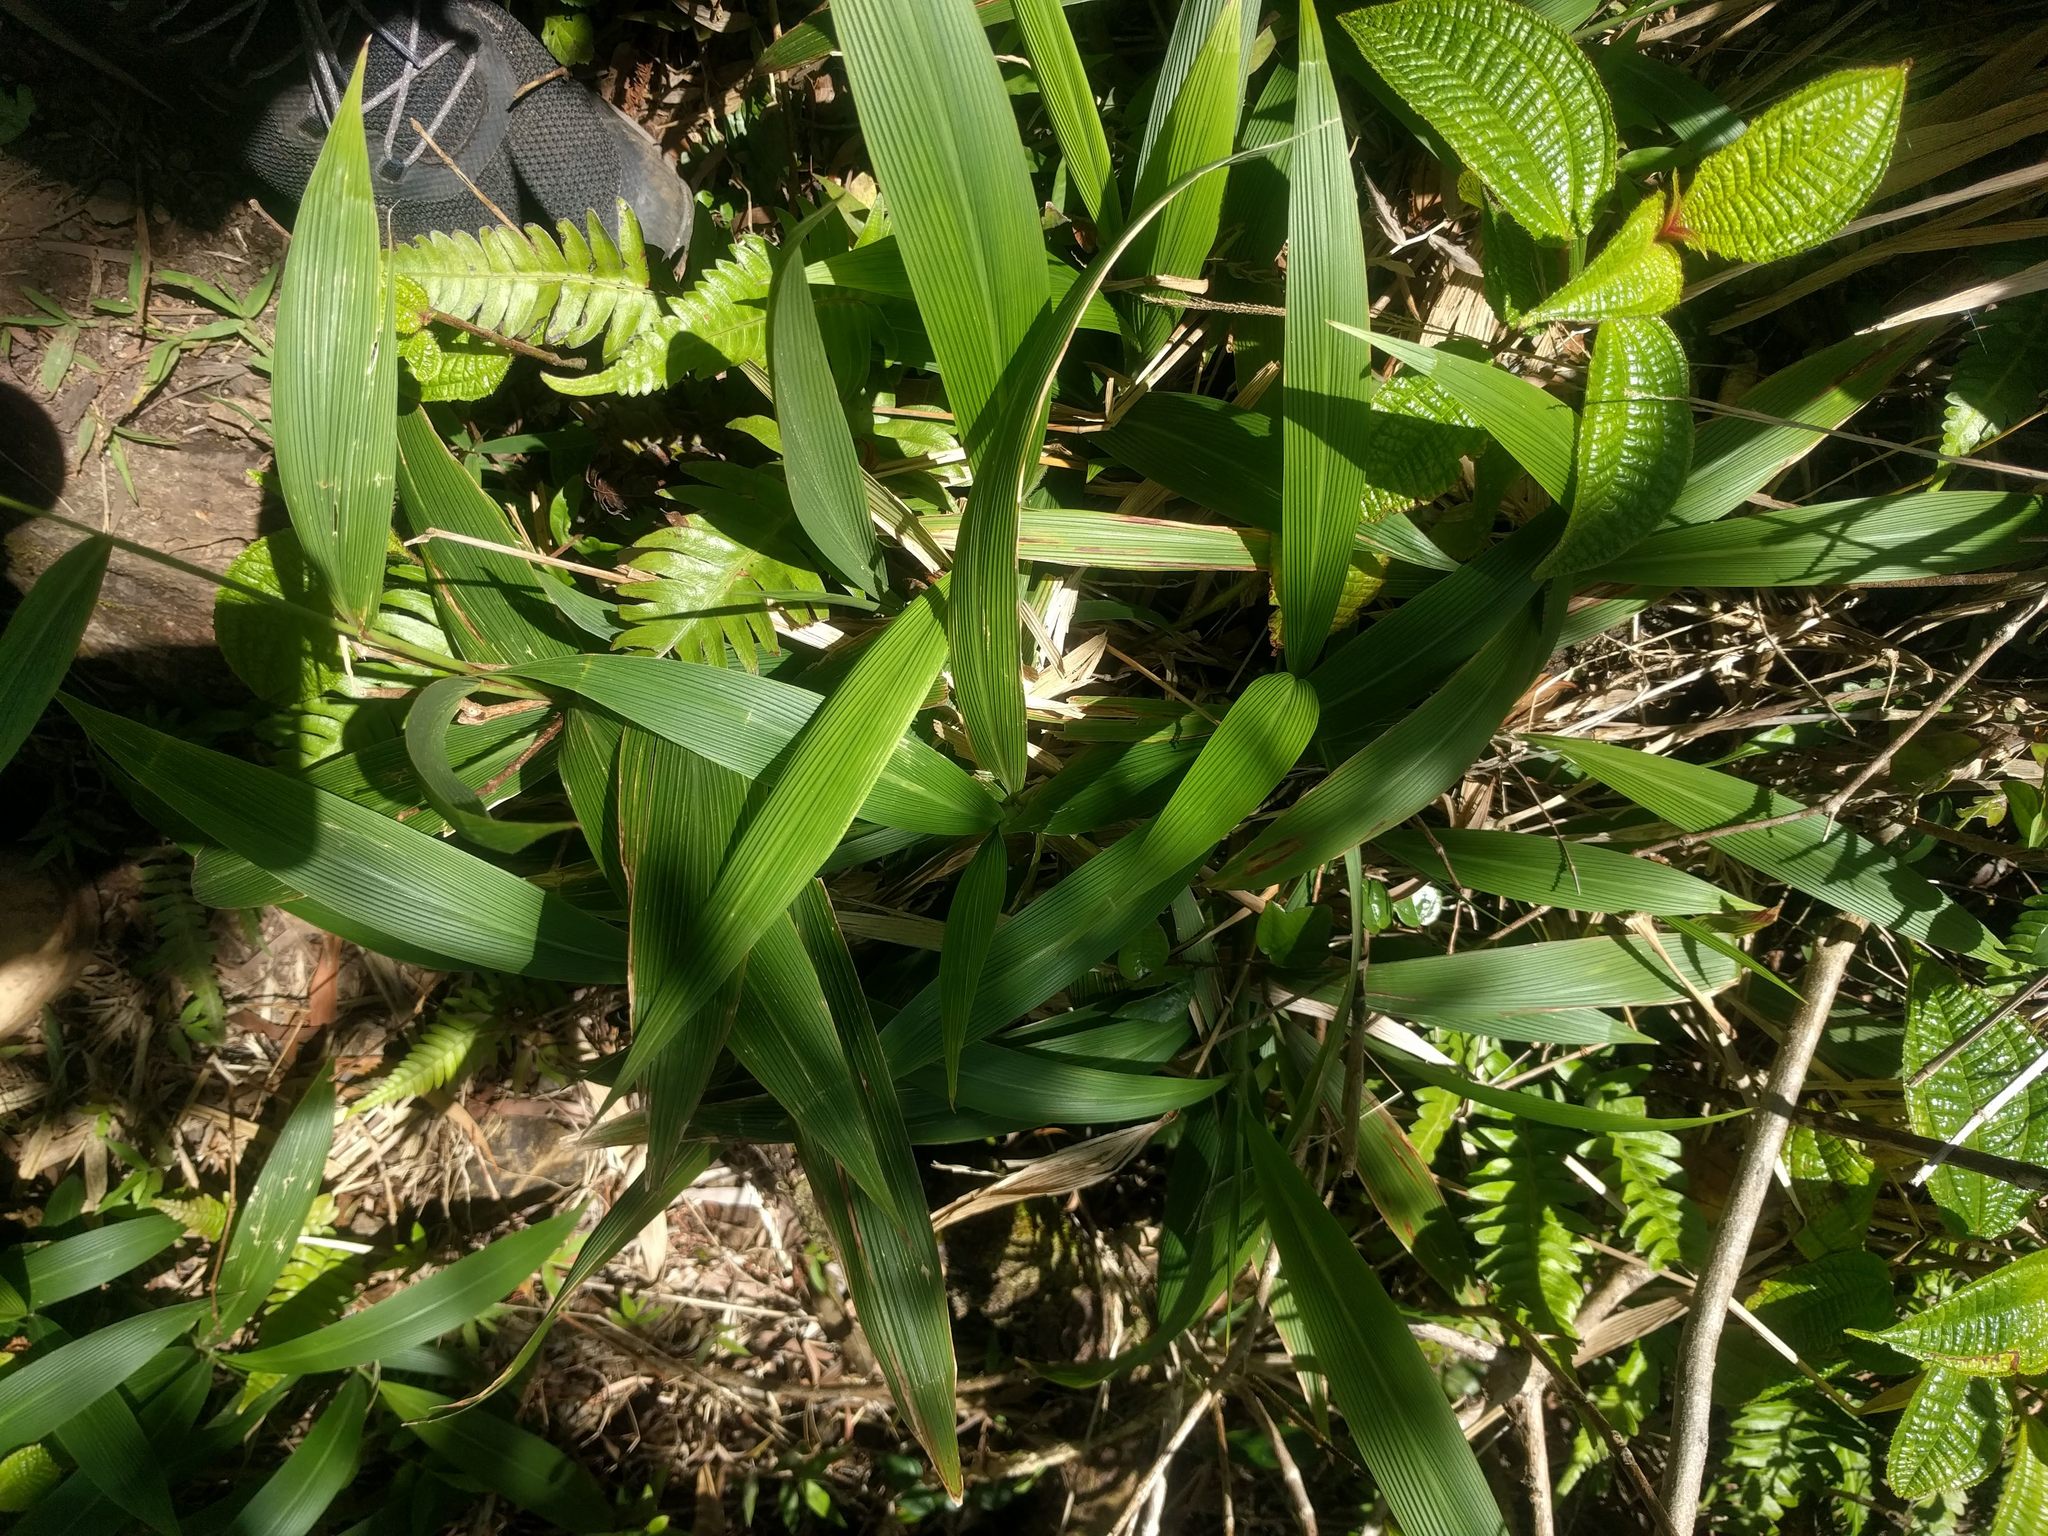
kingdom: Plantae
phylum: Tracheophyta
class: Liliopsida
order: Poales
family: Poaceae
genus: Setaria
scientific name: Setaria palmifolia
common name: Broadleaved bristlegrass
